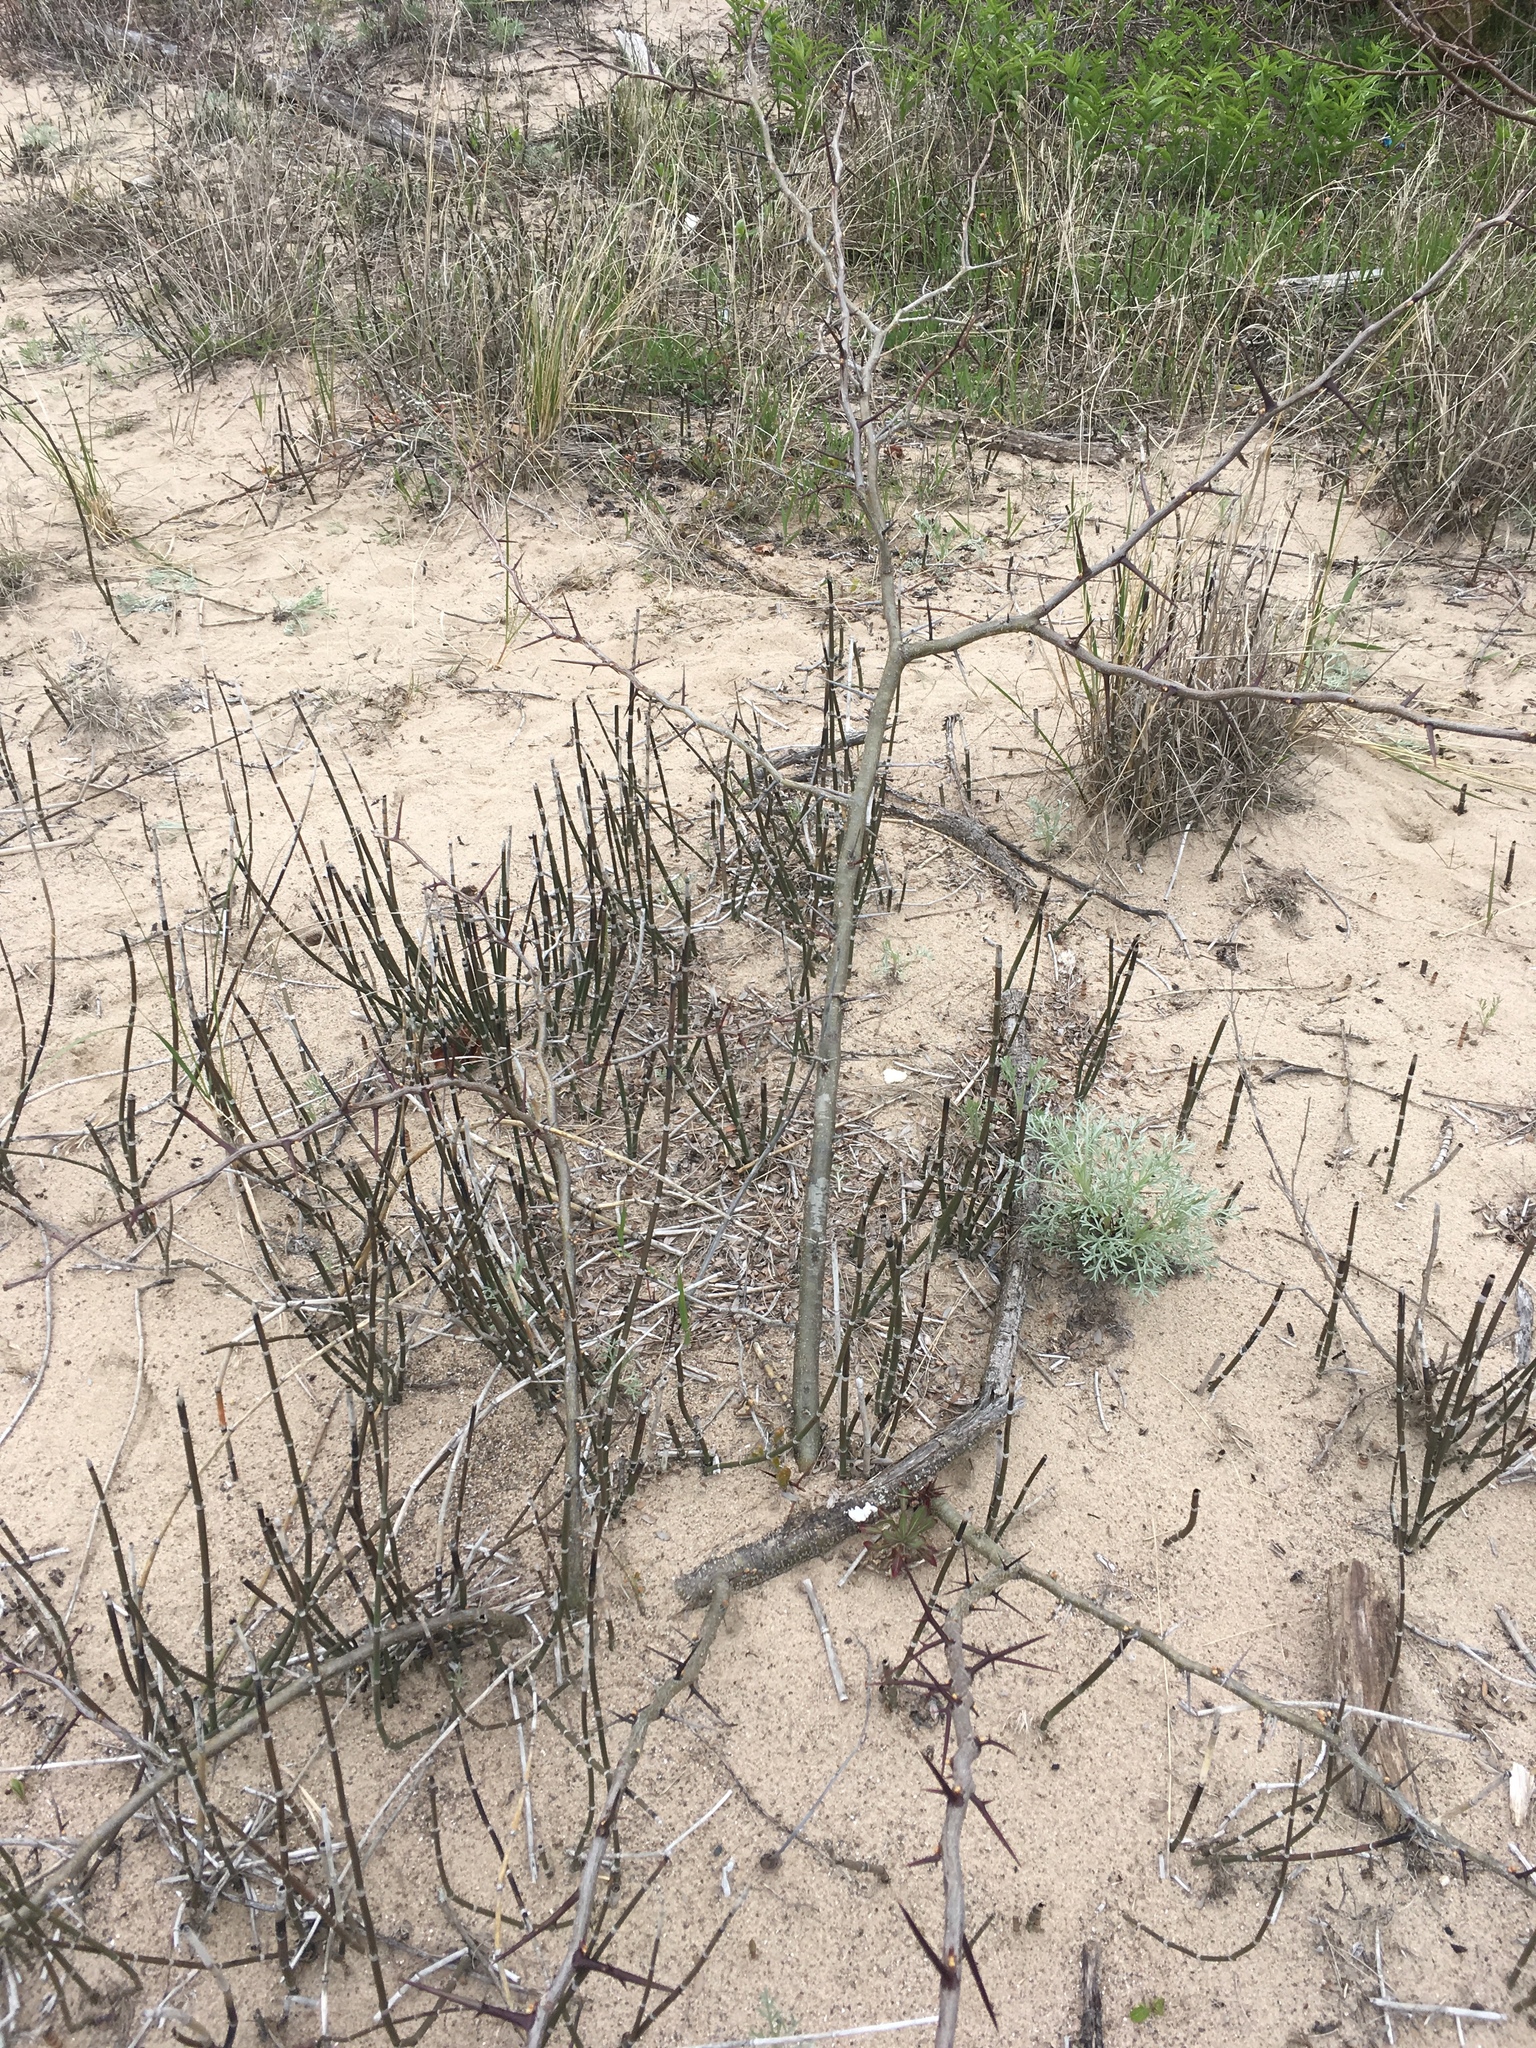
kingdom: Plantae
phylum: Tracheophyta
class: Magnoliopsida
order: Fabales
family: Fabaceae
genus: Gleditsia
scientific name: Gleditsia triacanthos
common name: Common honeylocust
